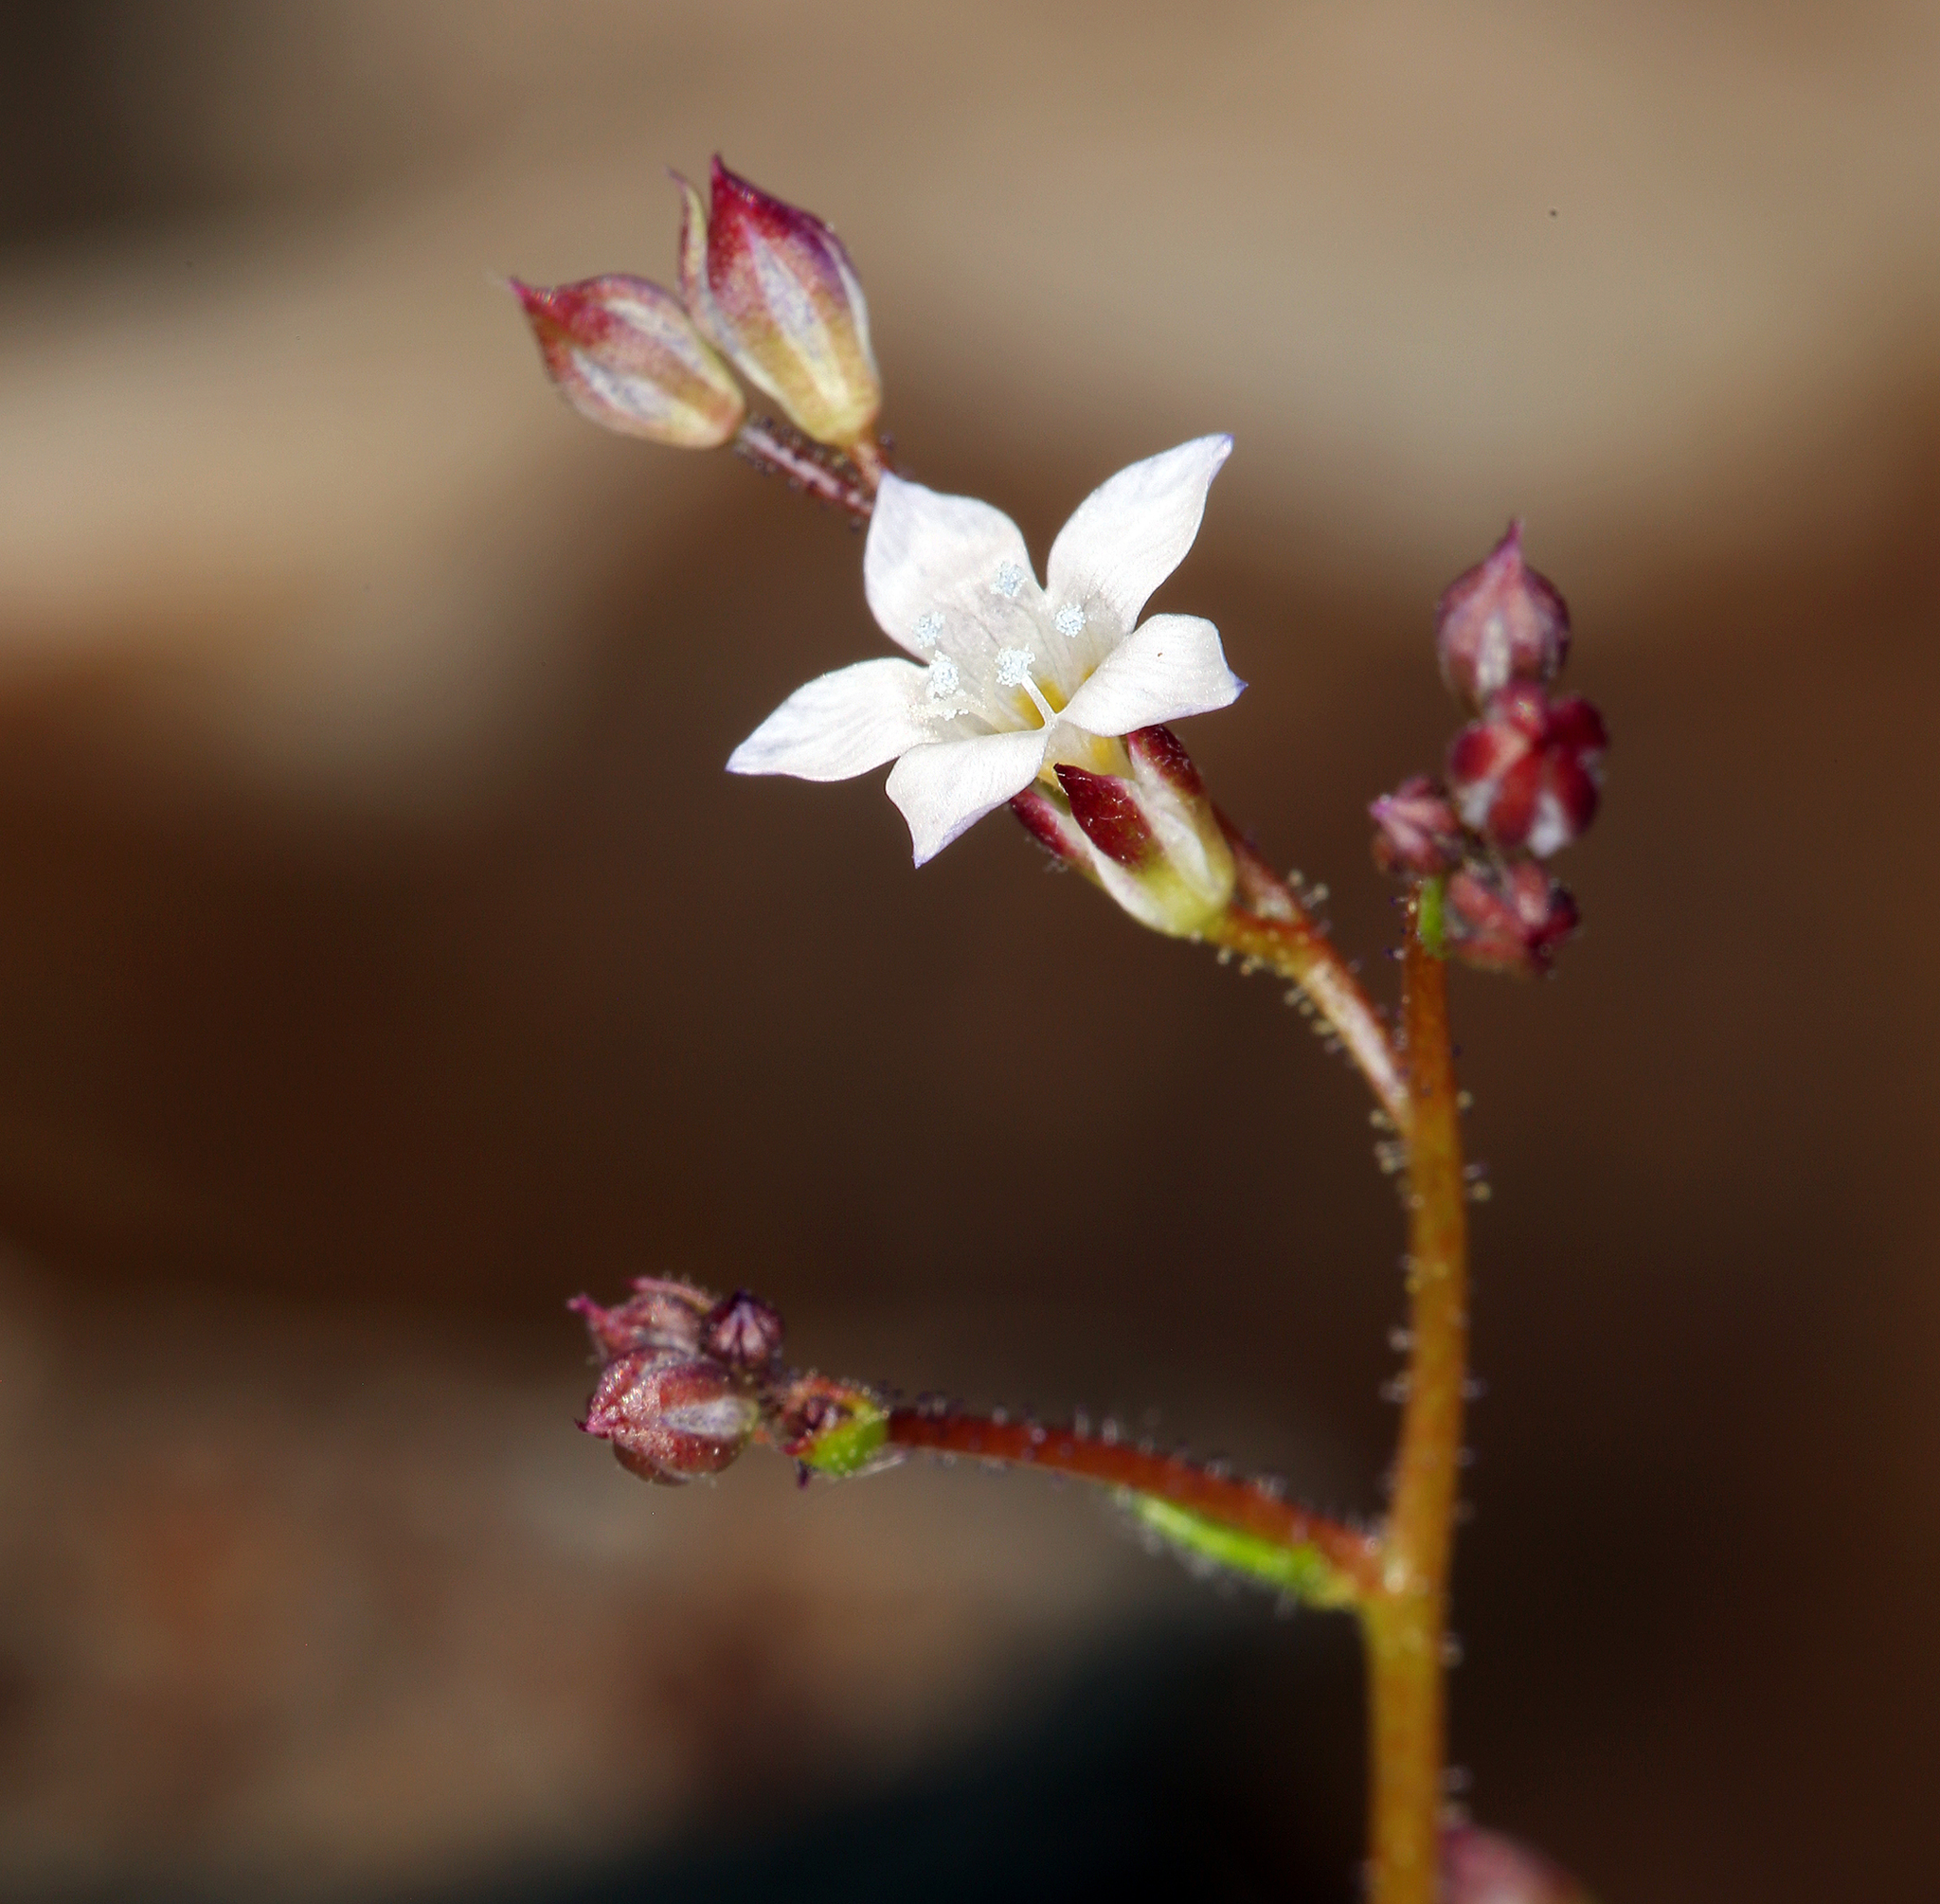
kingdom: Plantae
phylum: Tracheophyta
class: Magnoliopsida
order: Ericales
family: Polemoniaceae
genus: Gilia
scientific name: Gilia clokeyi
